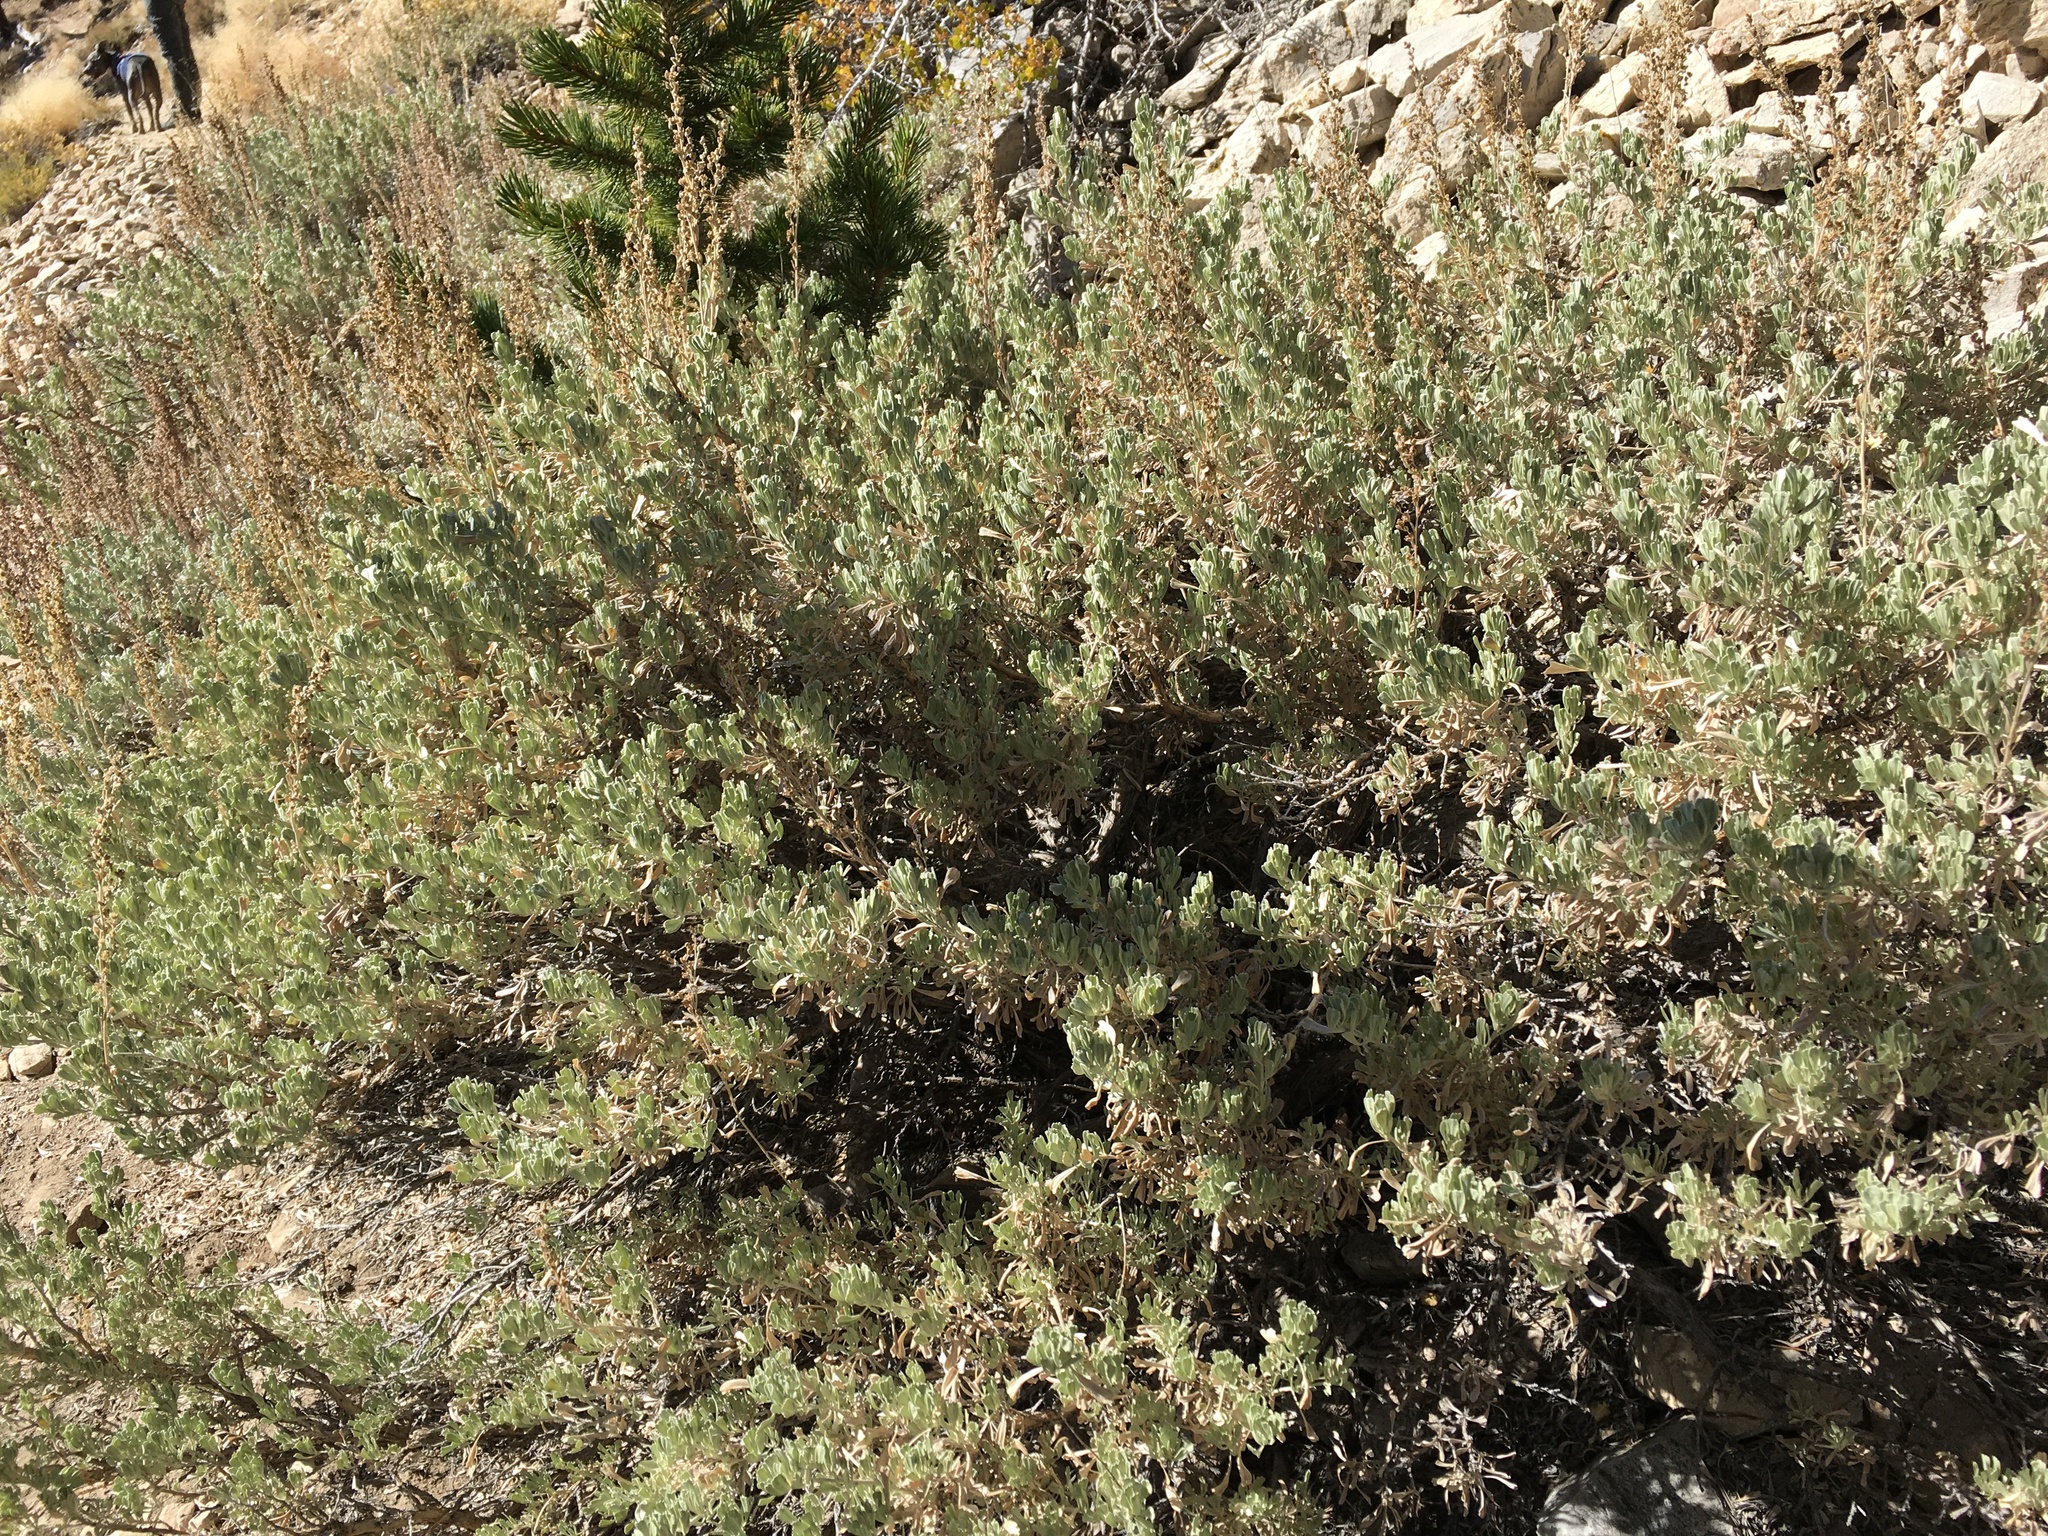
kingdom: Plantae
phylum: Tracheophyta
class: Magnoliopsida
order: Asterales
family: Asteraceae
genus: Artemisia
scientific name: Artemisia tridentata
